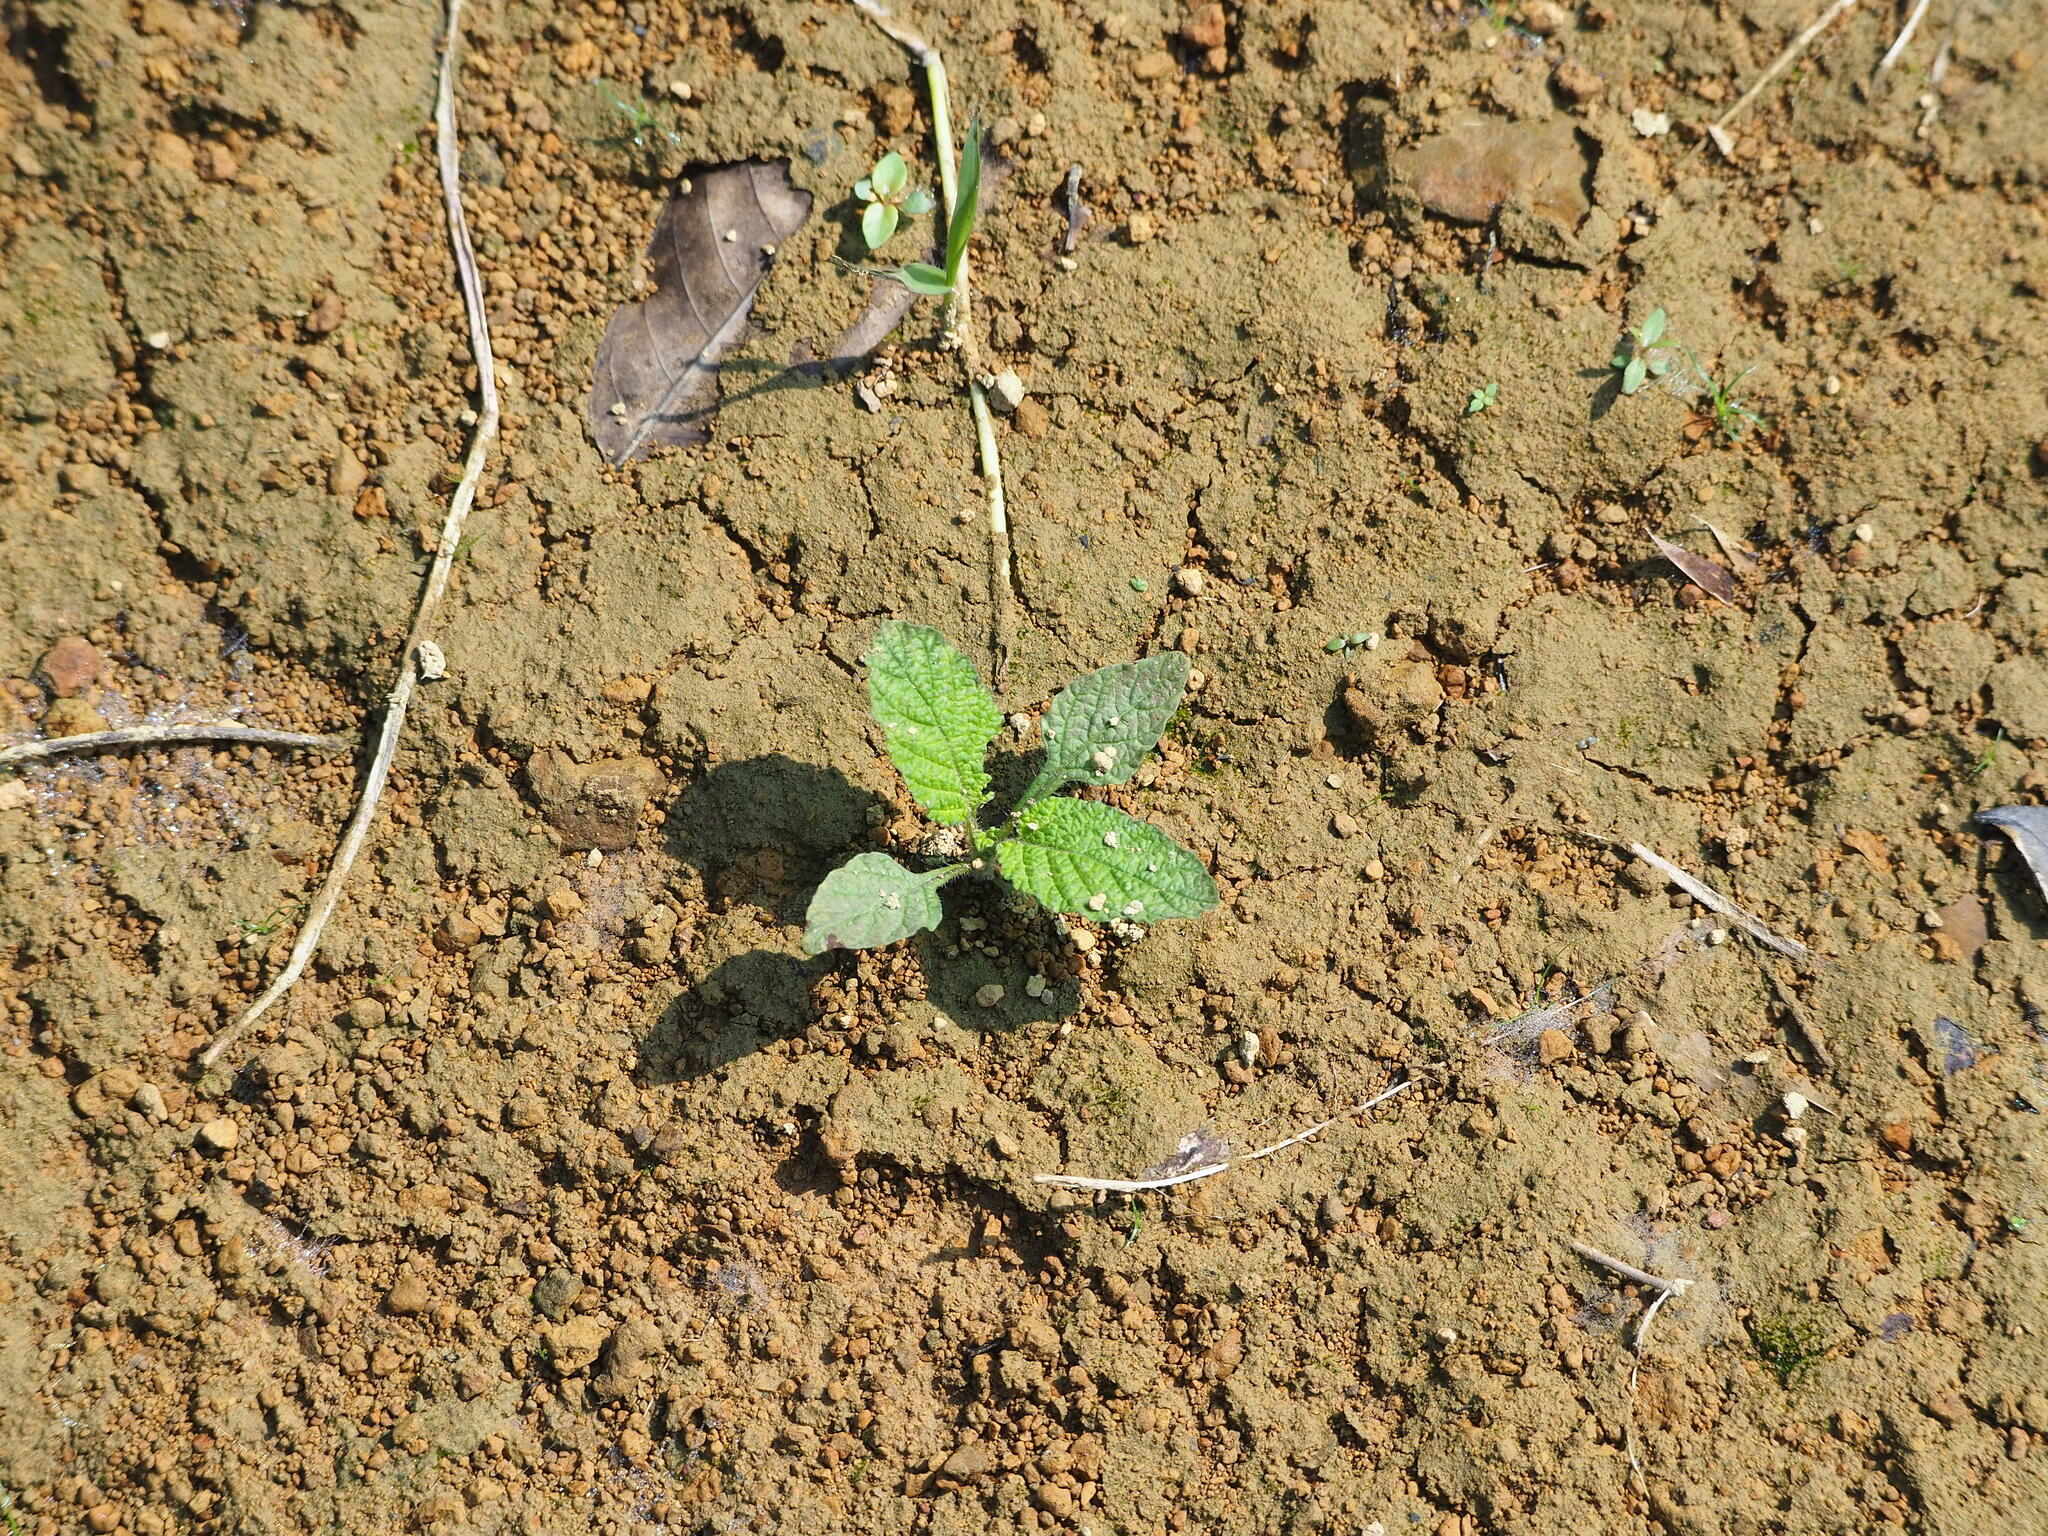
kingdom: Plantae
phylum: Tracheophyta
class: Magnoliopsida
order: Boraginales
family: Heliotropiaceae
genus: Heliotropium
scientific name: Heliotropium indicum
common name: Indian heliotrope
